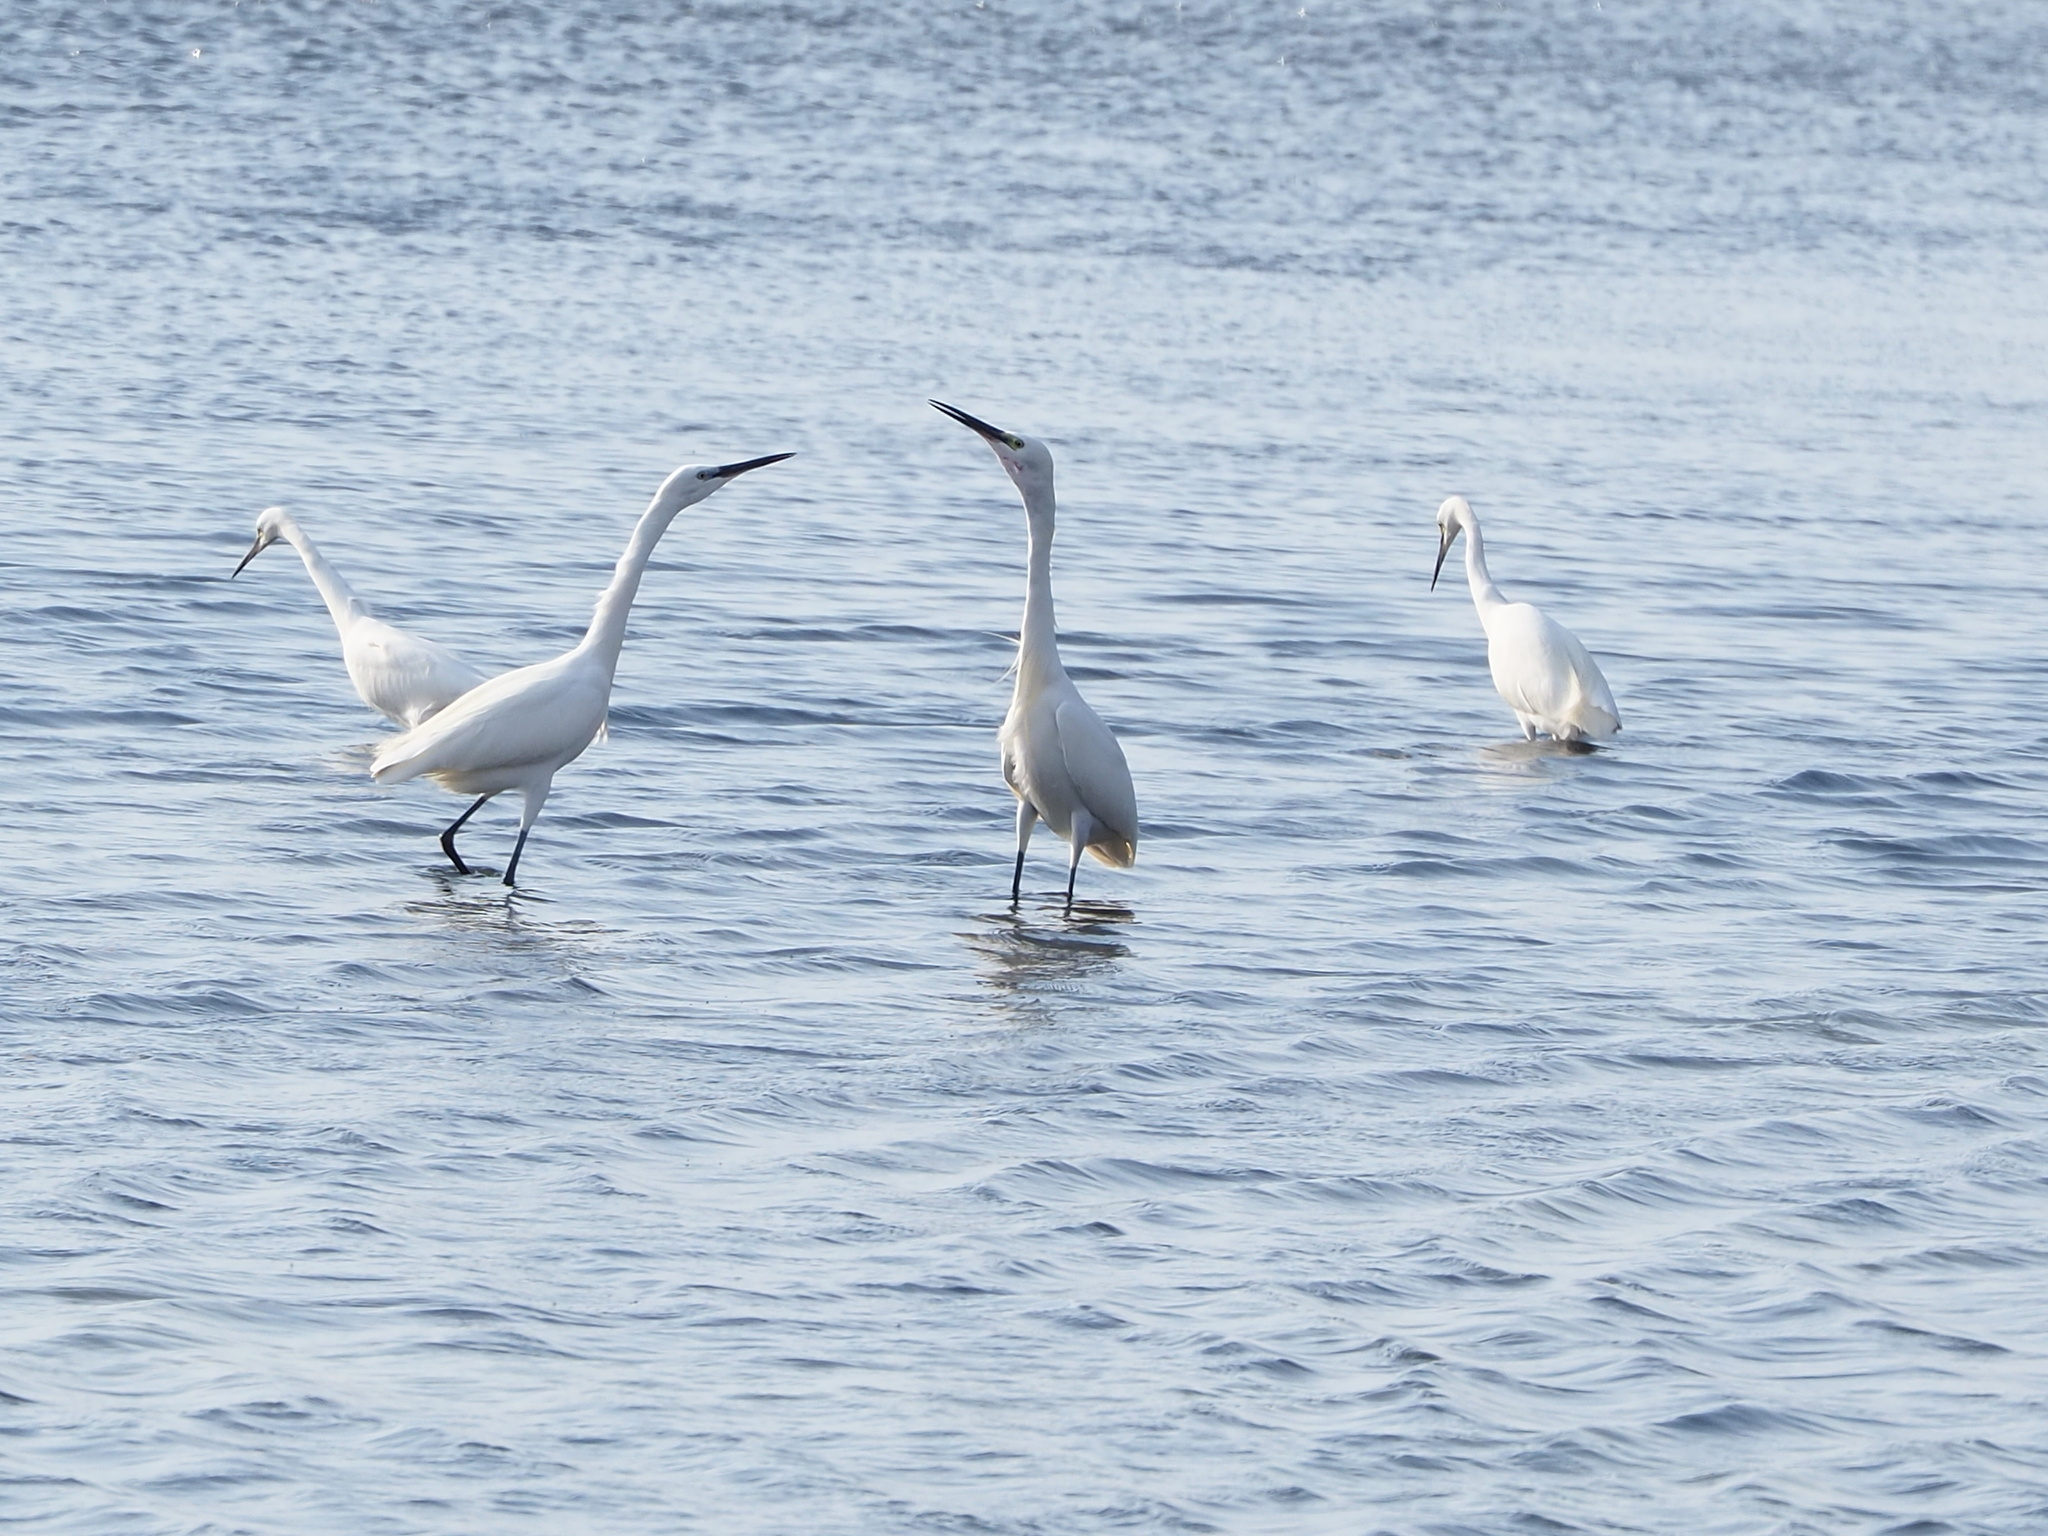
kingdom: Animalia
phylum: Chordata
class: Aves
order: Pelecaniformes
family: Ardeidae
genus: Egretta
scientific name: Egretta garzetta
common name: Little egret
